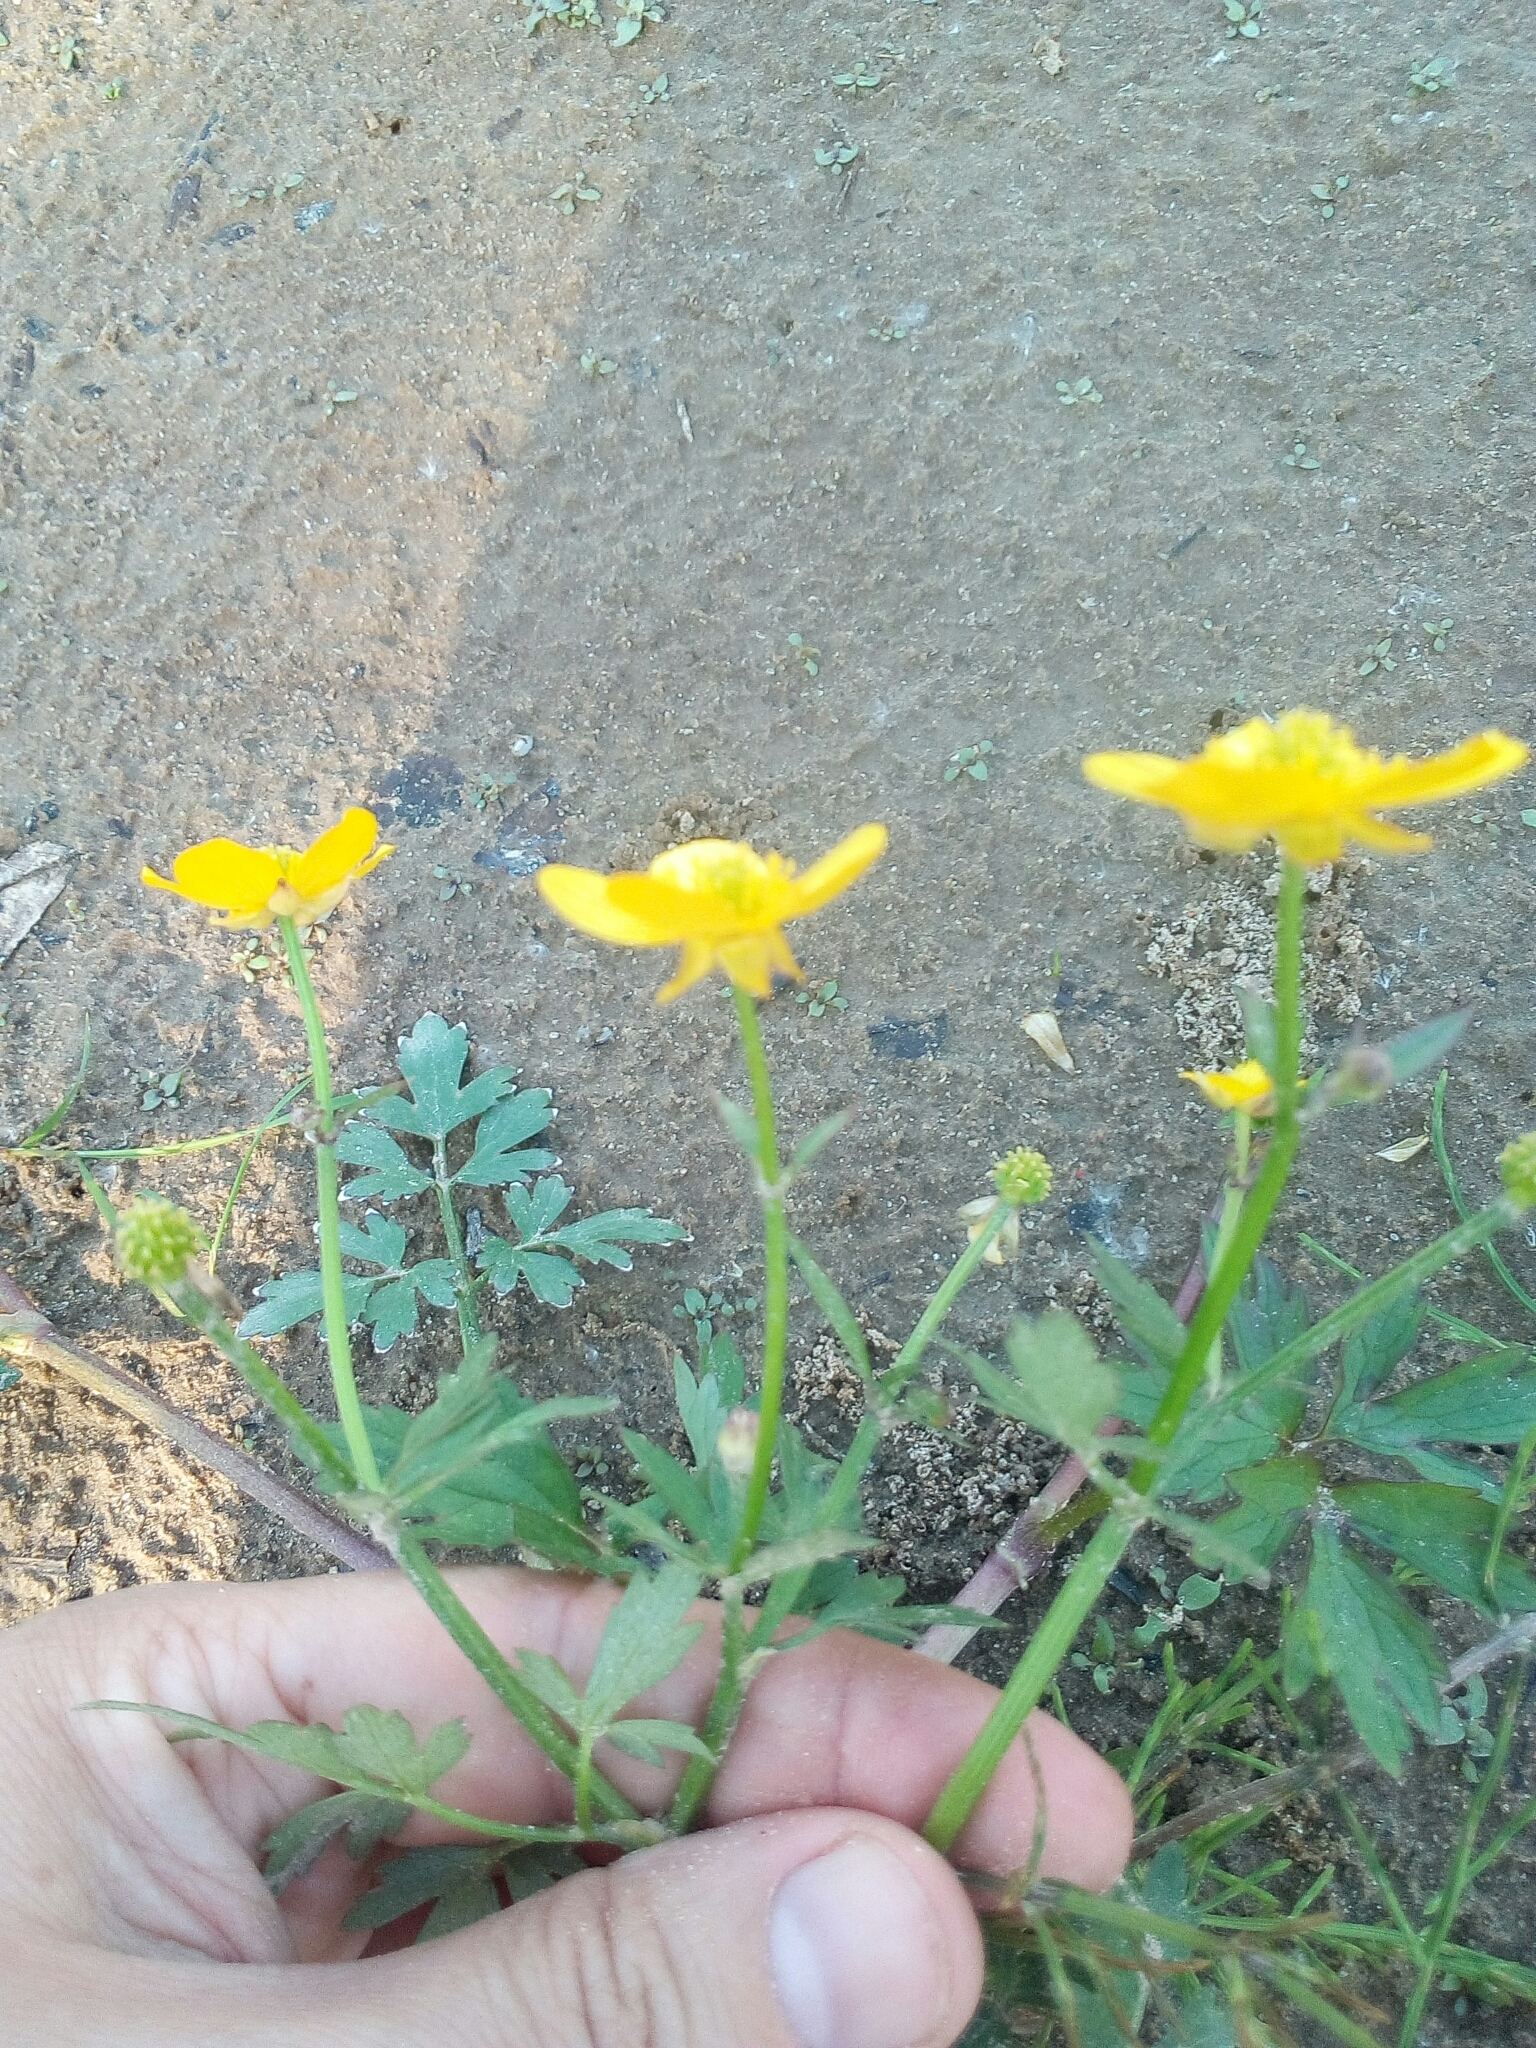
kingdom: Plantae
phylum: Tracheophyta
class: Magnoliopsida
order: Ranunculales
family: Ranunculaceae
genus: Ranunculus
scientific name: Ranunculus repens
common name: Creeping buttercup
